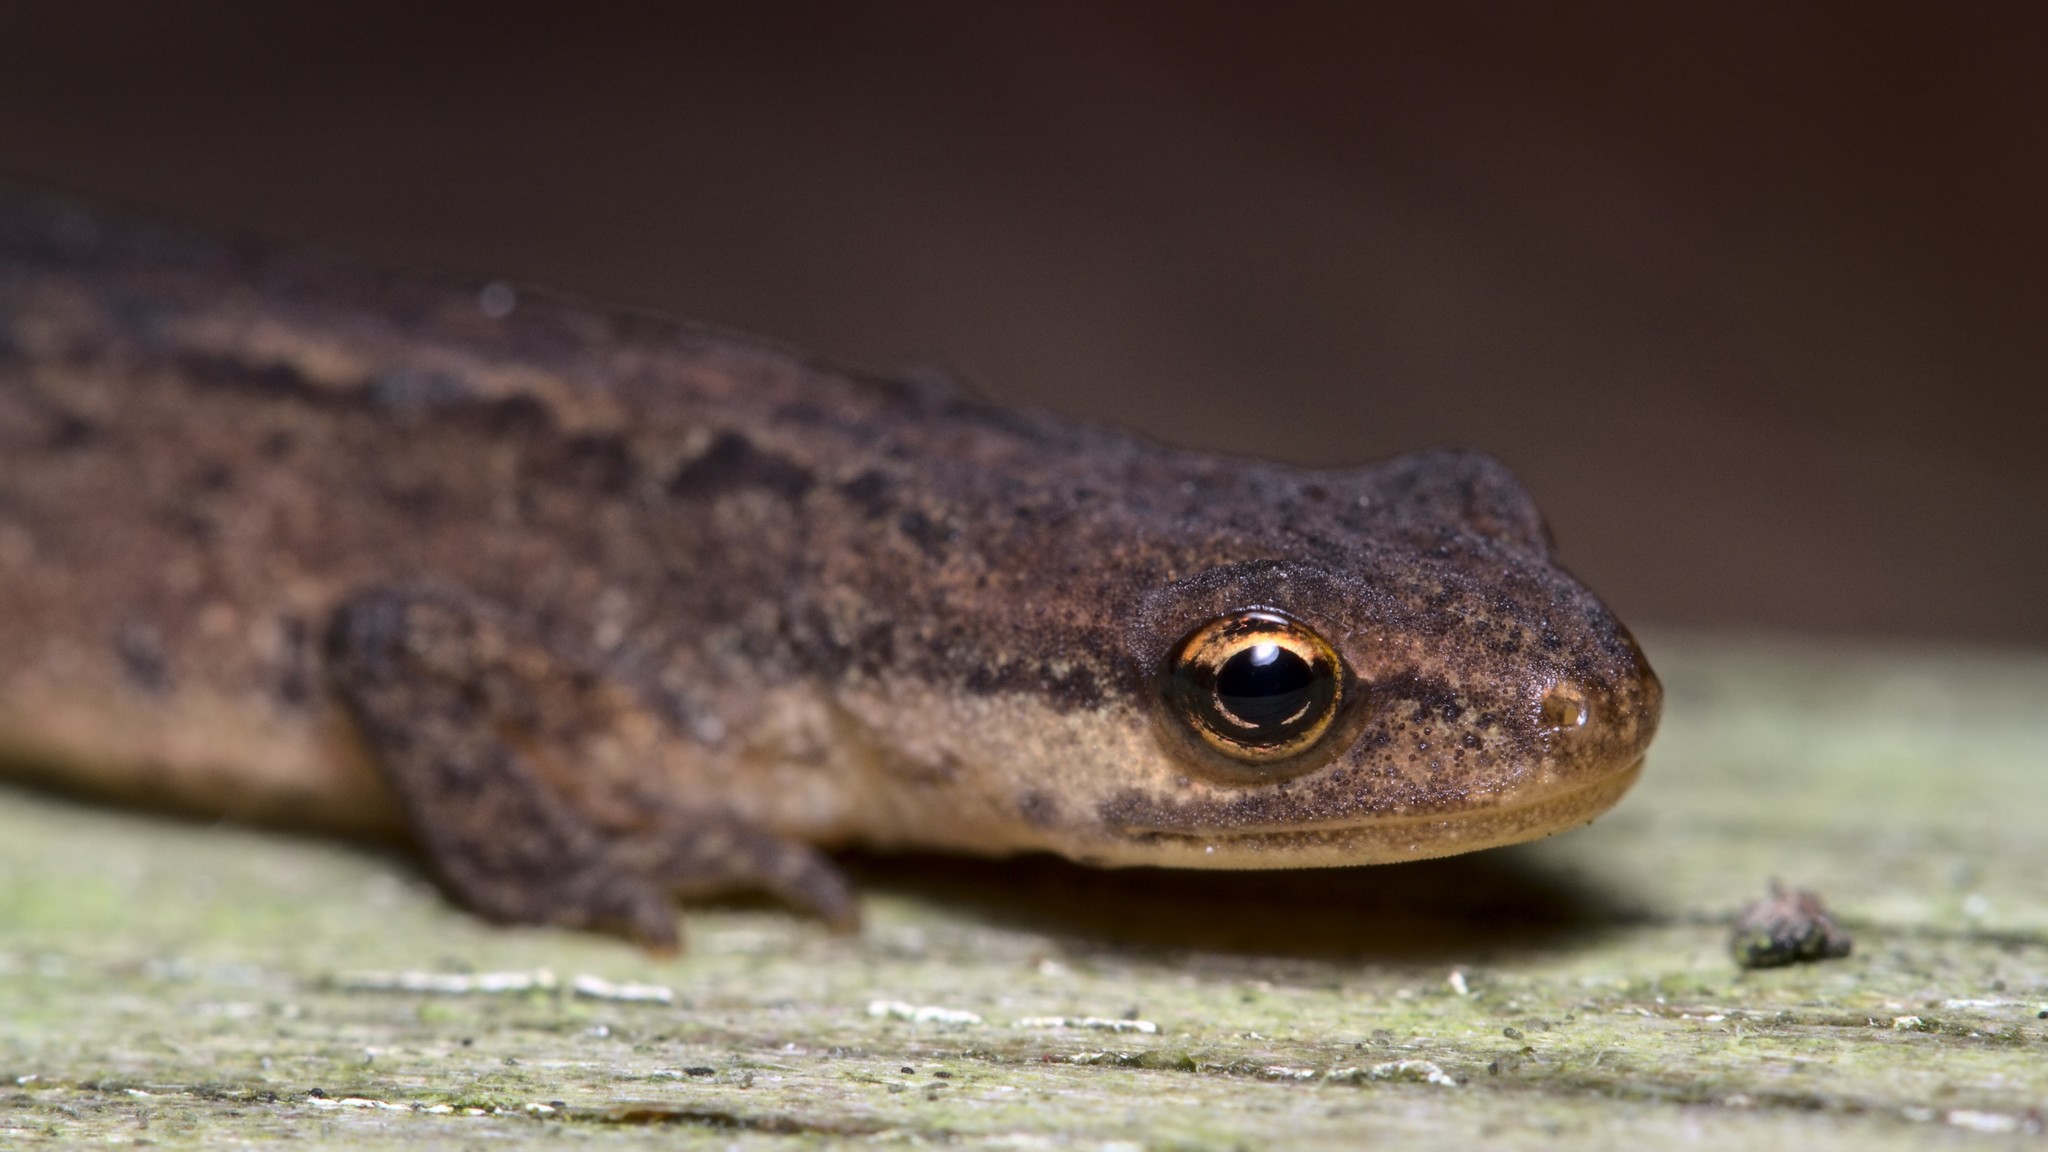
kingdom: Animalia
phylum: Chordata
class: Amphibia
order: Caudata
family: Salamandridae
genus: Lissotriton
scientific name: Lissotriton vulgaris
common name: Smooth newt
